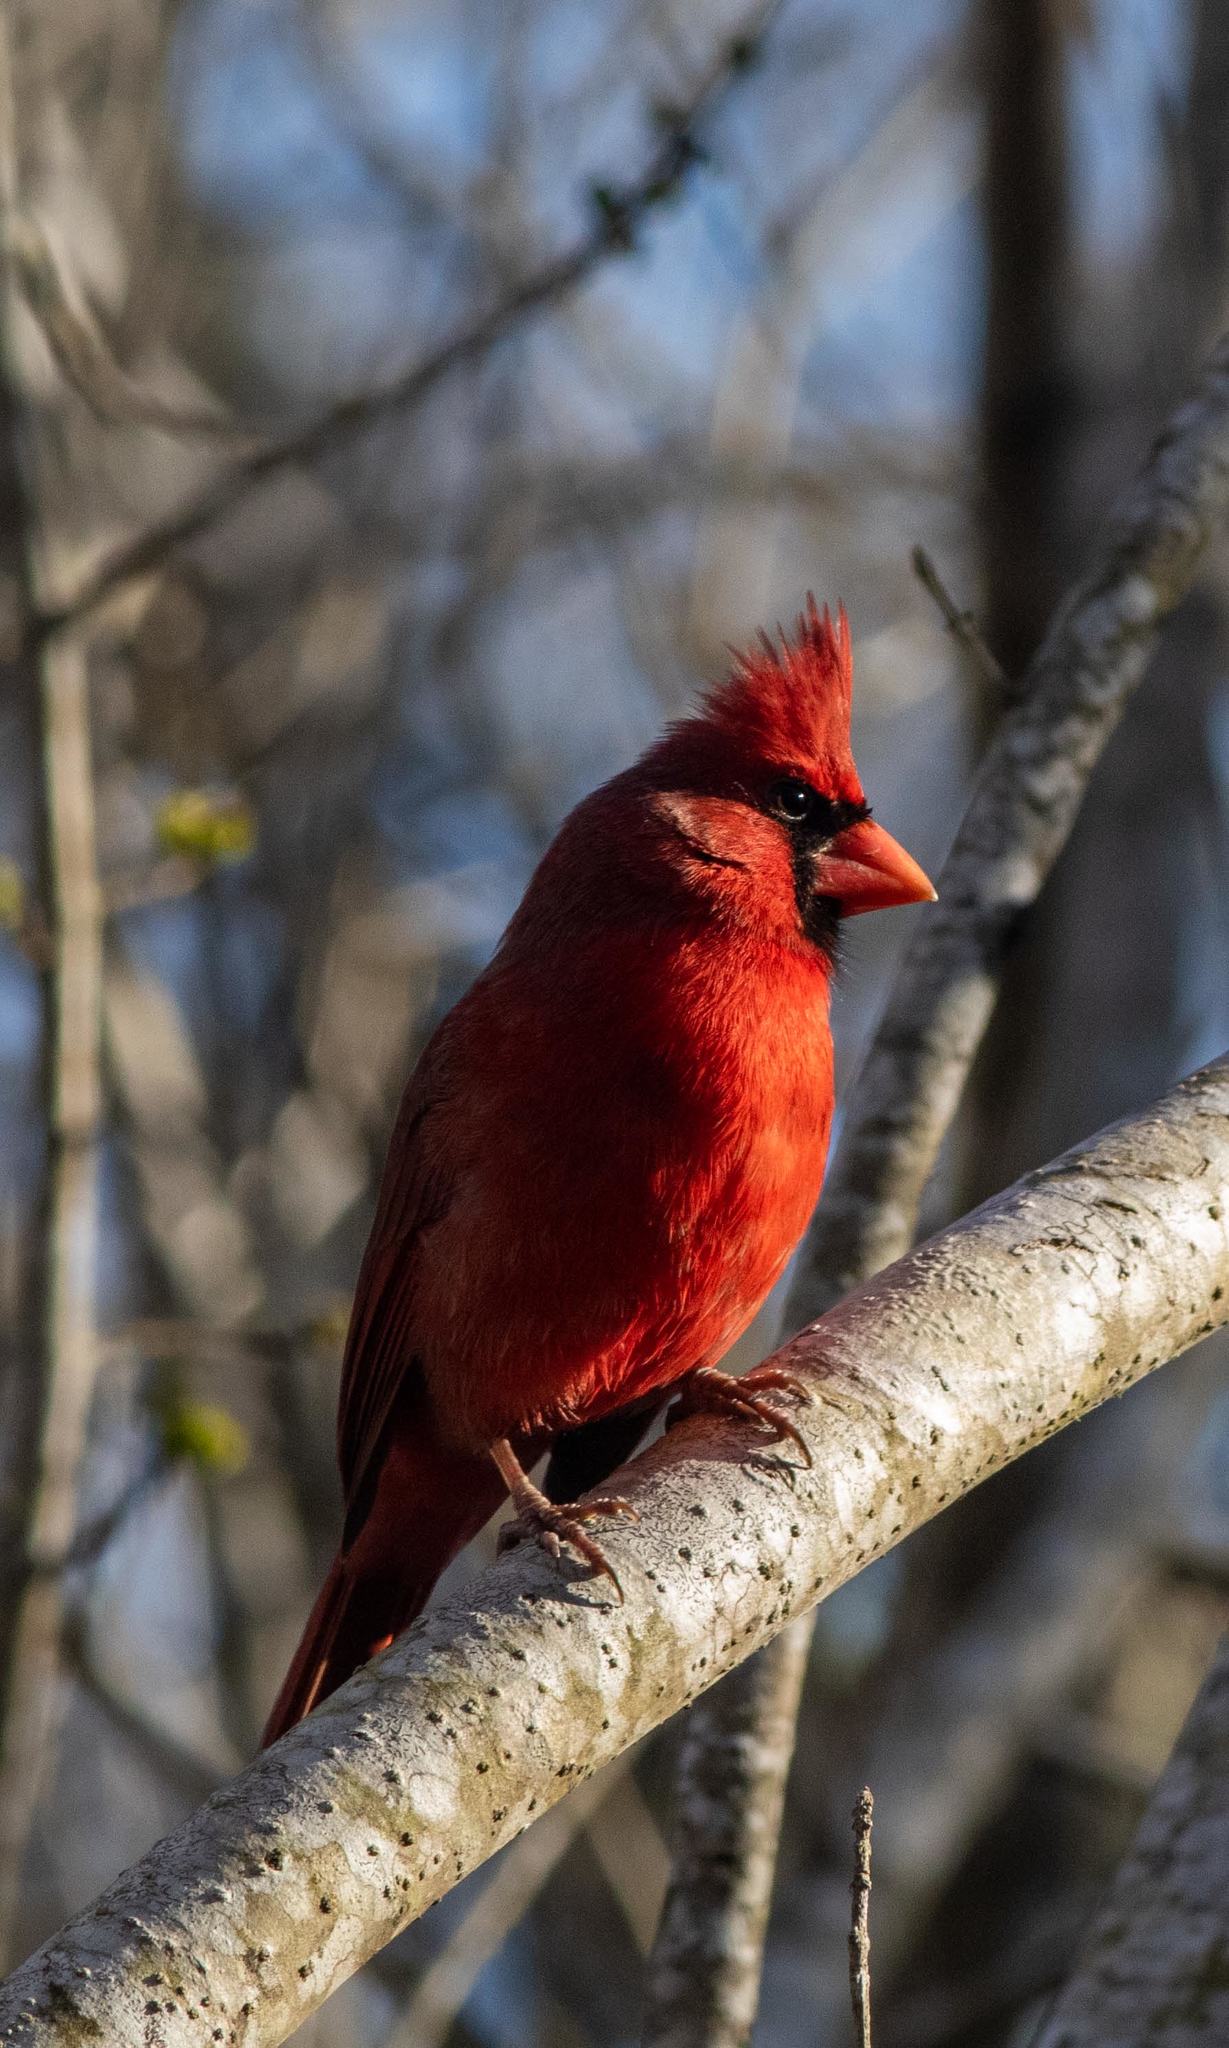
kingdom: Animalia
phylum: Chordata
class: Aves
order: Passeriformes
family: Cardinalidae
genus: Cardinalis
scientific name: Cardinalis cardinalis
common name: Northern cardinal
